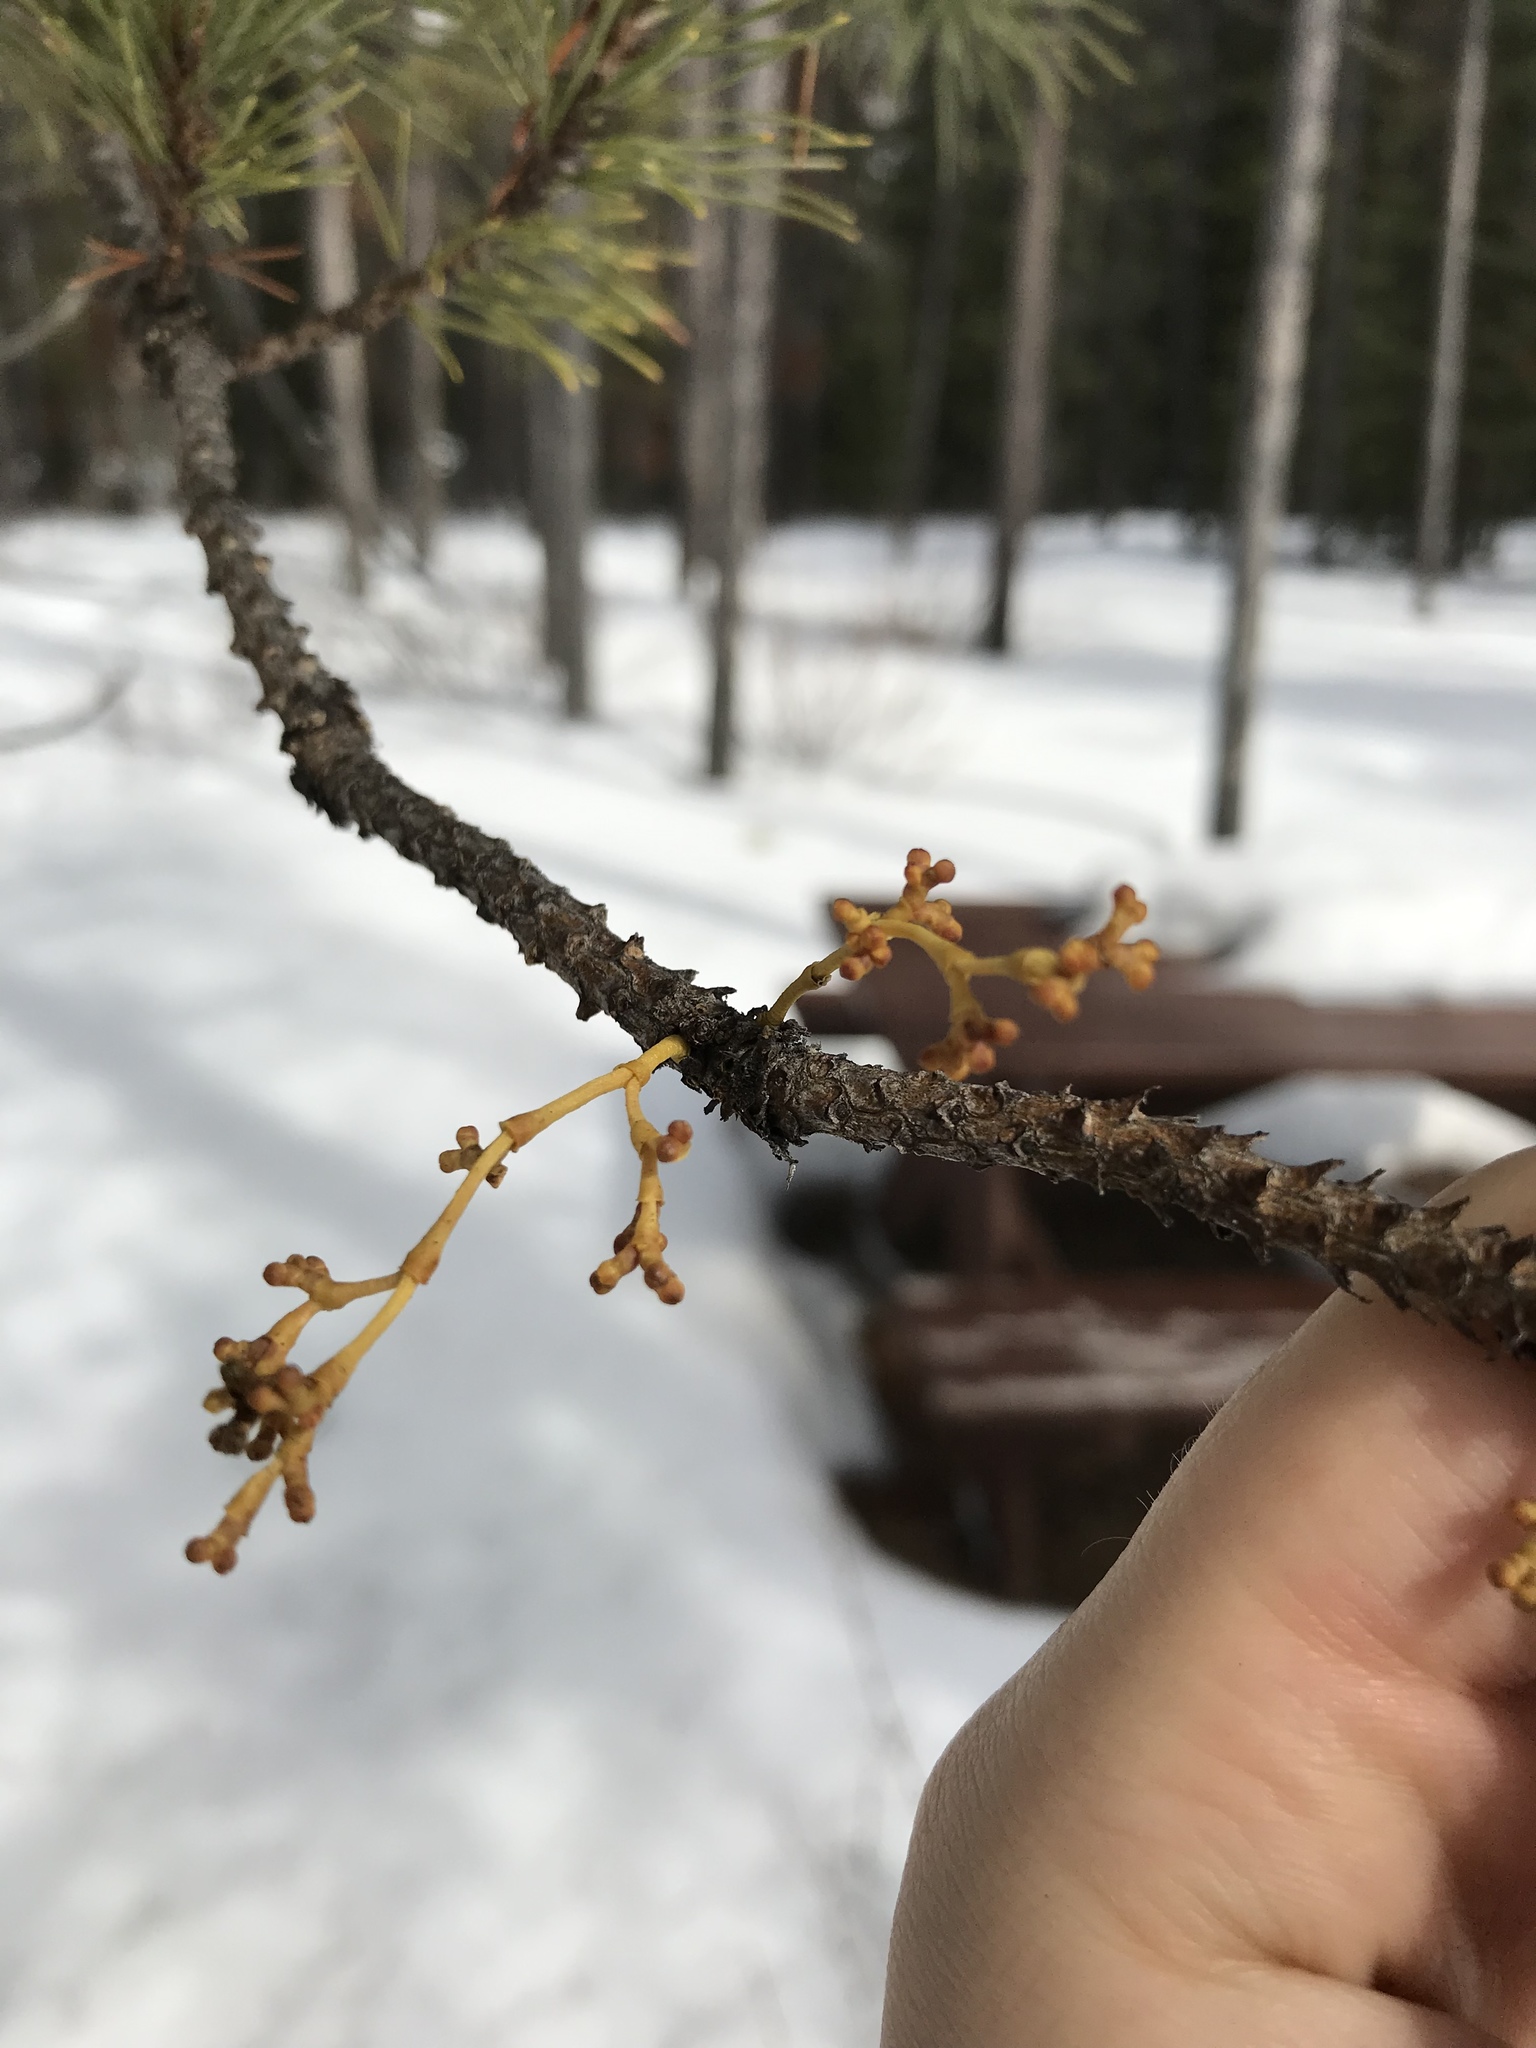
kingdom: Plantae
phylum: Tracheophyta
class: Magnoliopsida
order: Santalales
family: Viscaceae
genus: Arceuthobium
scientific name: Arceuthobium americanum
